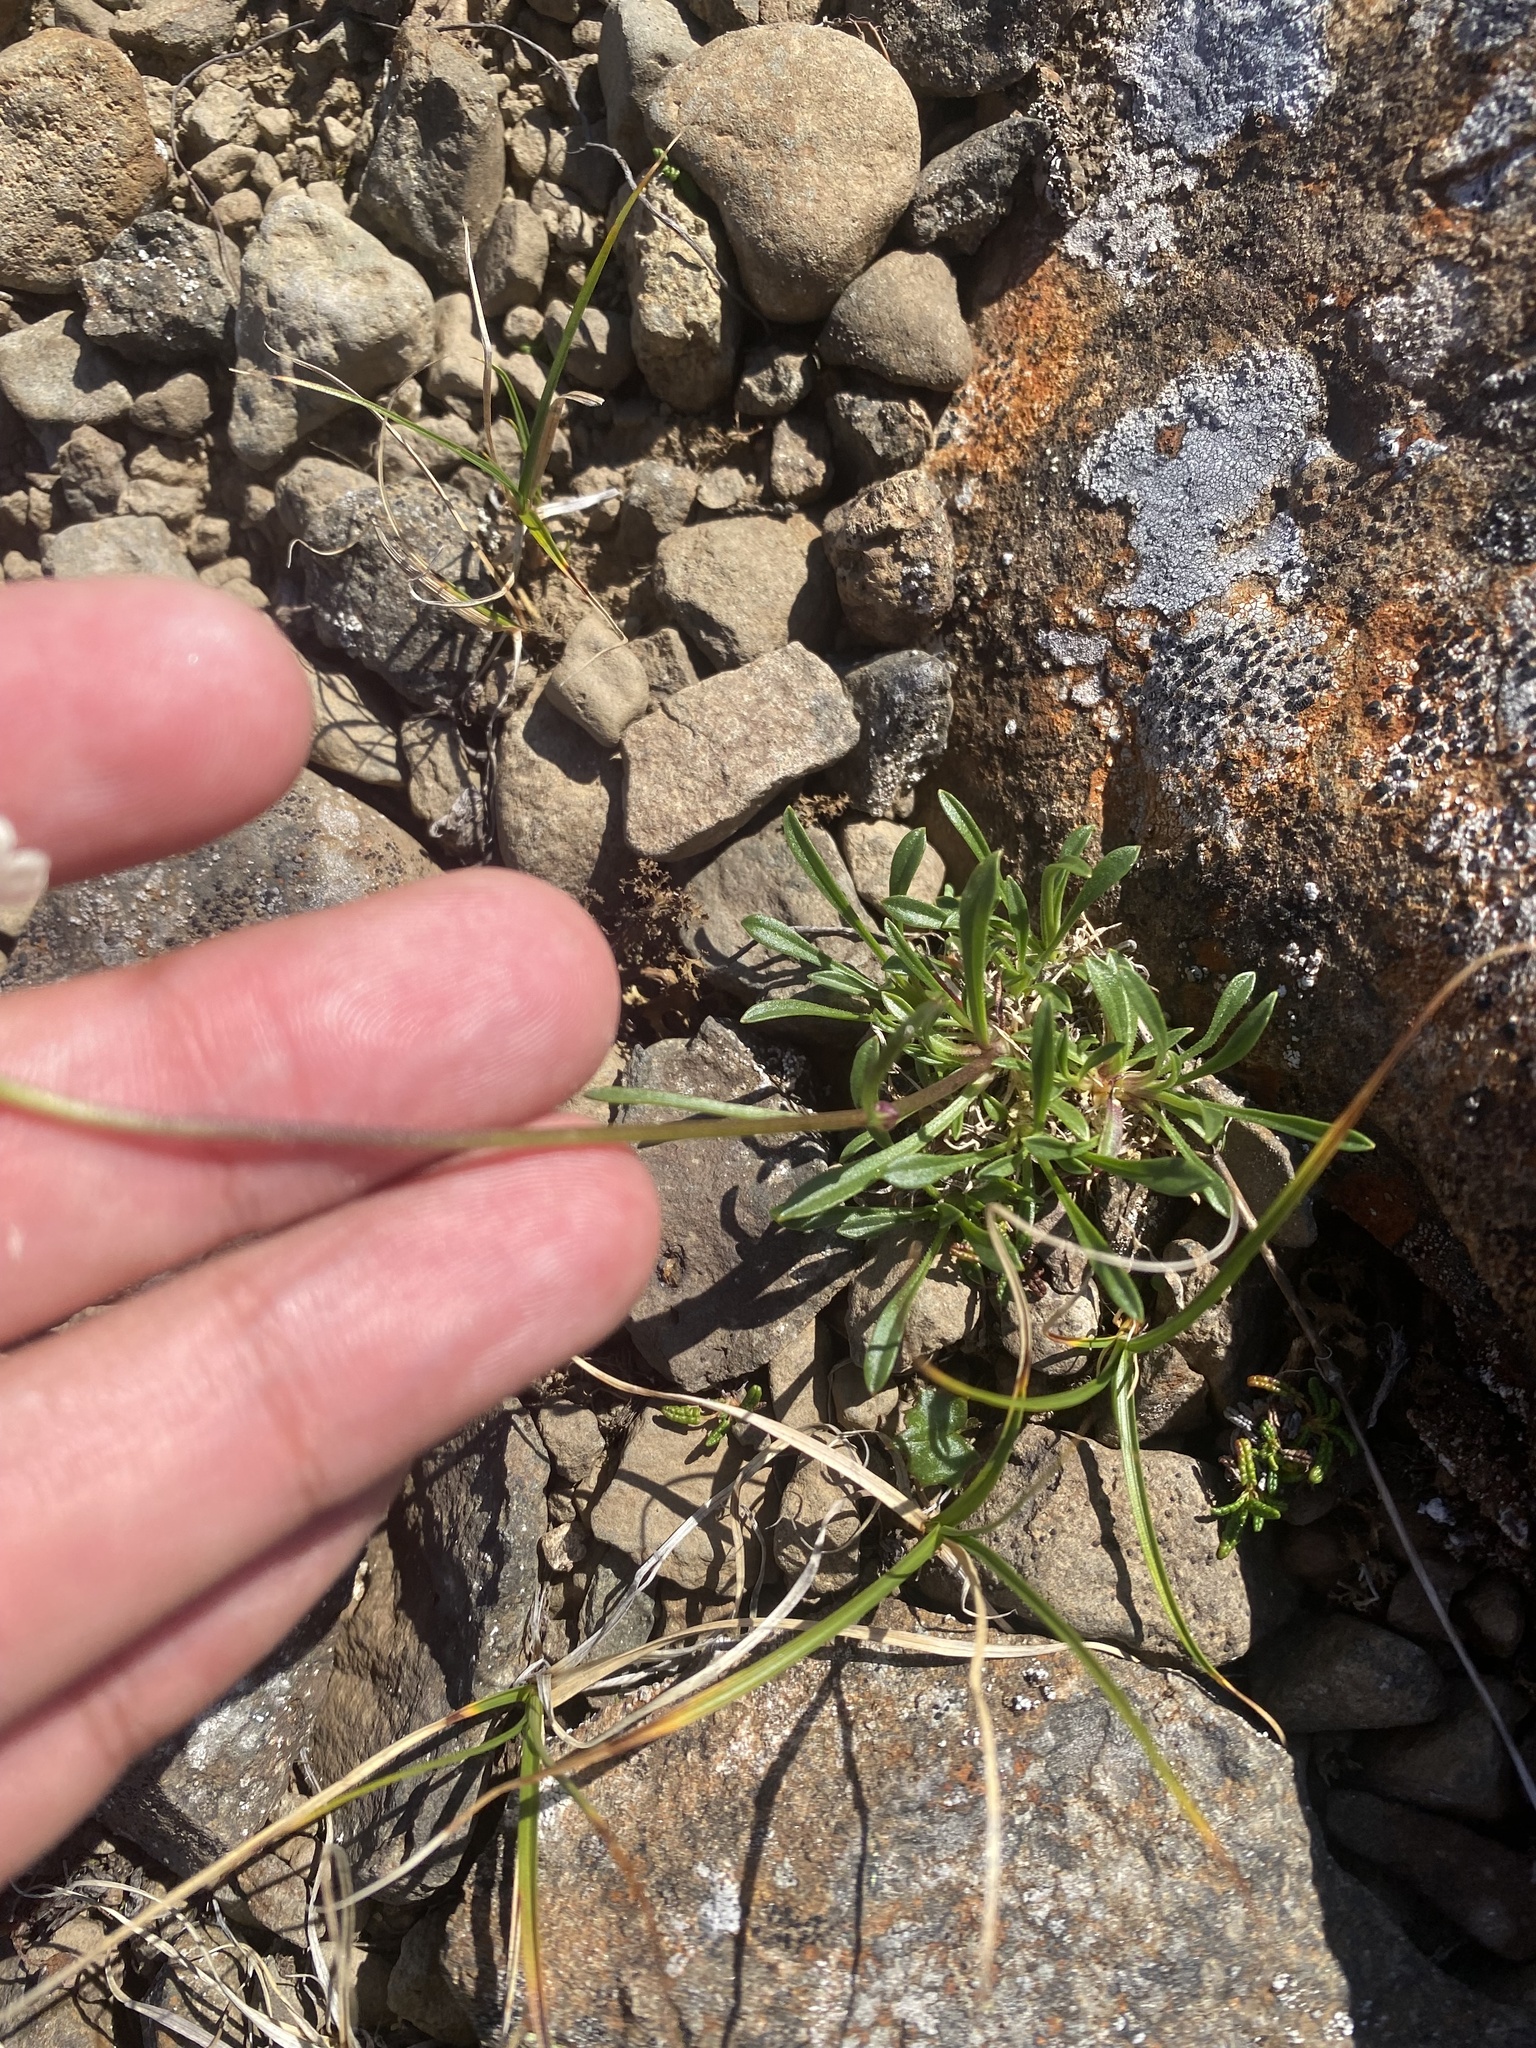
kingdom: Plantae
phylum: Tracheophyta
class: Magnoliopsida
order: Caryophyllales
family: Caryophyllaceae
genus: Silene
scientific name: Silene chamarensis
